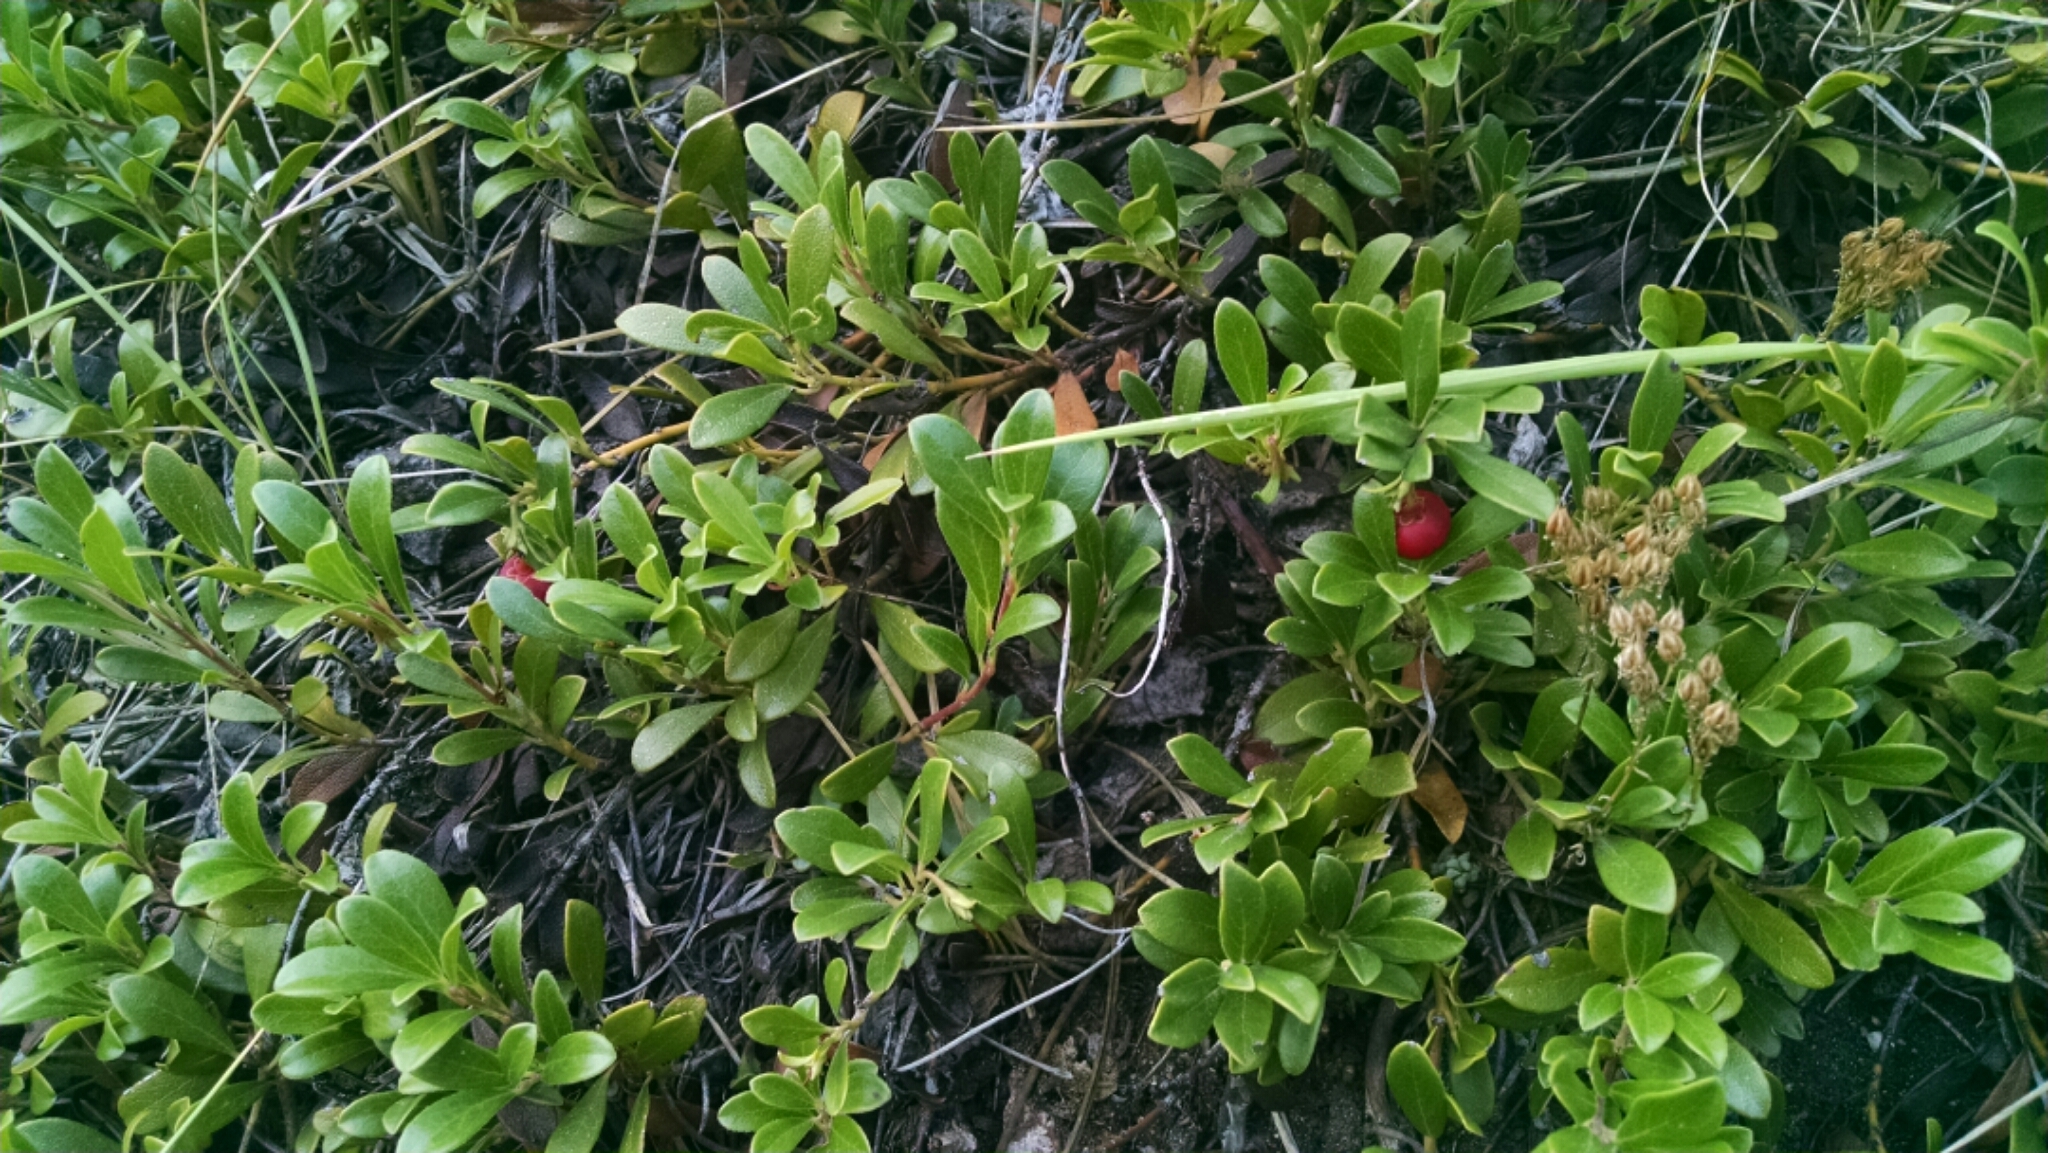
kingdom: Plantae
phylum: Tracheophyta
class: Magnoliopsida
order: Ericales
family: Ericaceae
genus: Arctostaphylos
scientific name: Arctostaphylos uva-ursi
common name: Bearberry
